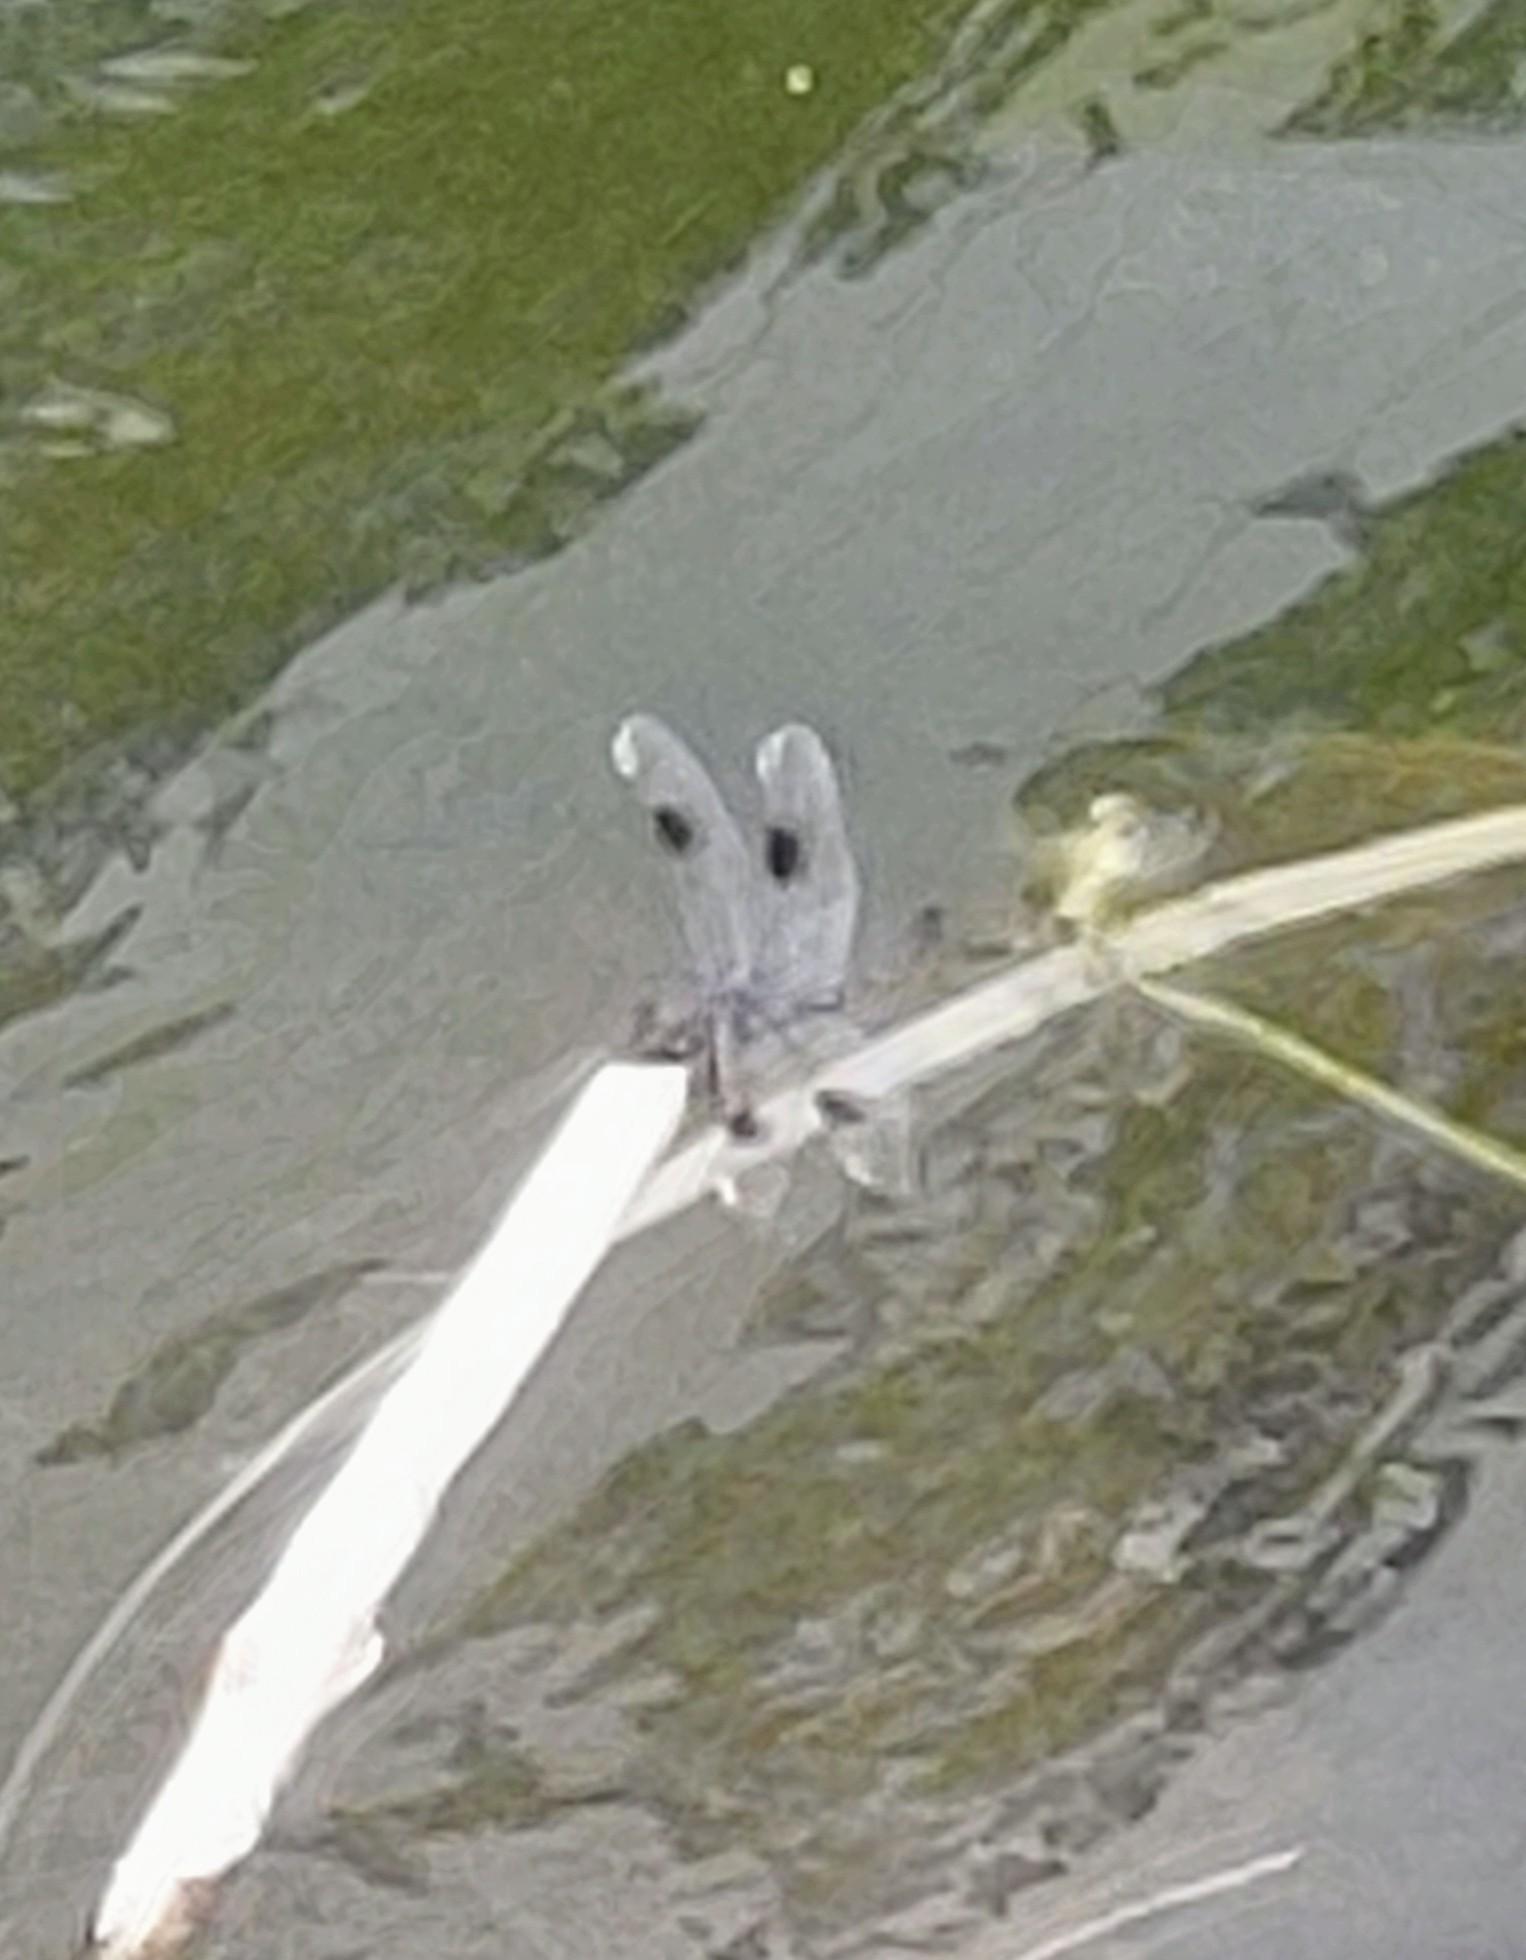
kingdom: Animalia
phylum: Arthropoda
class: Insecta
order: Odonata
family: Libellulidae
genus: Brachymesia
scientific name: Brachymesia gravida
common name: Four-spotted pennant
